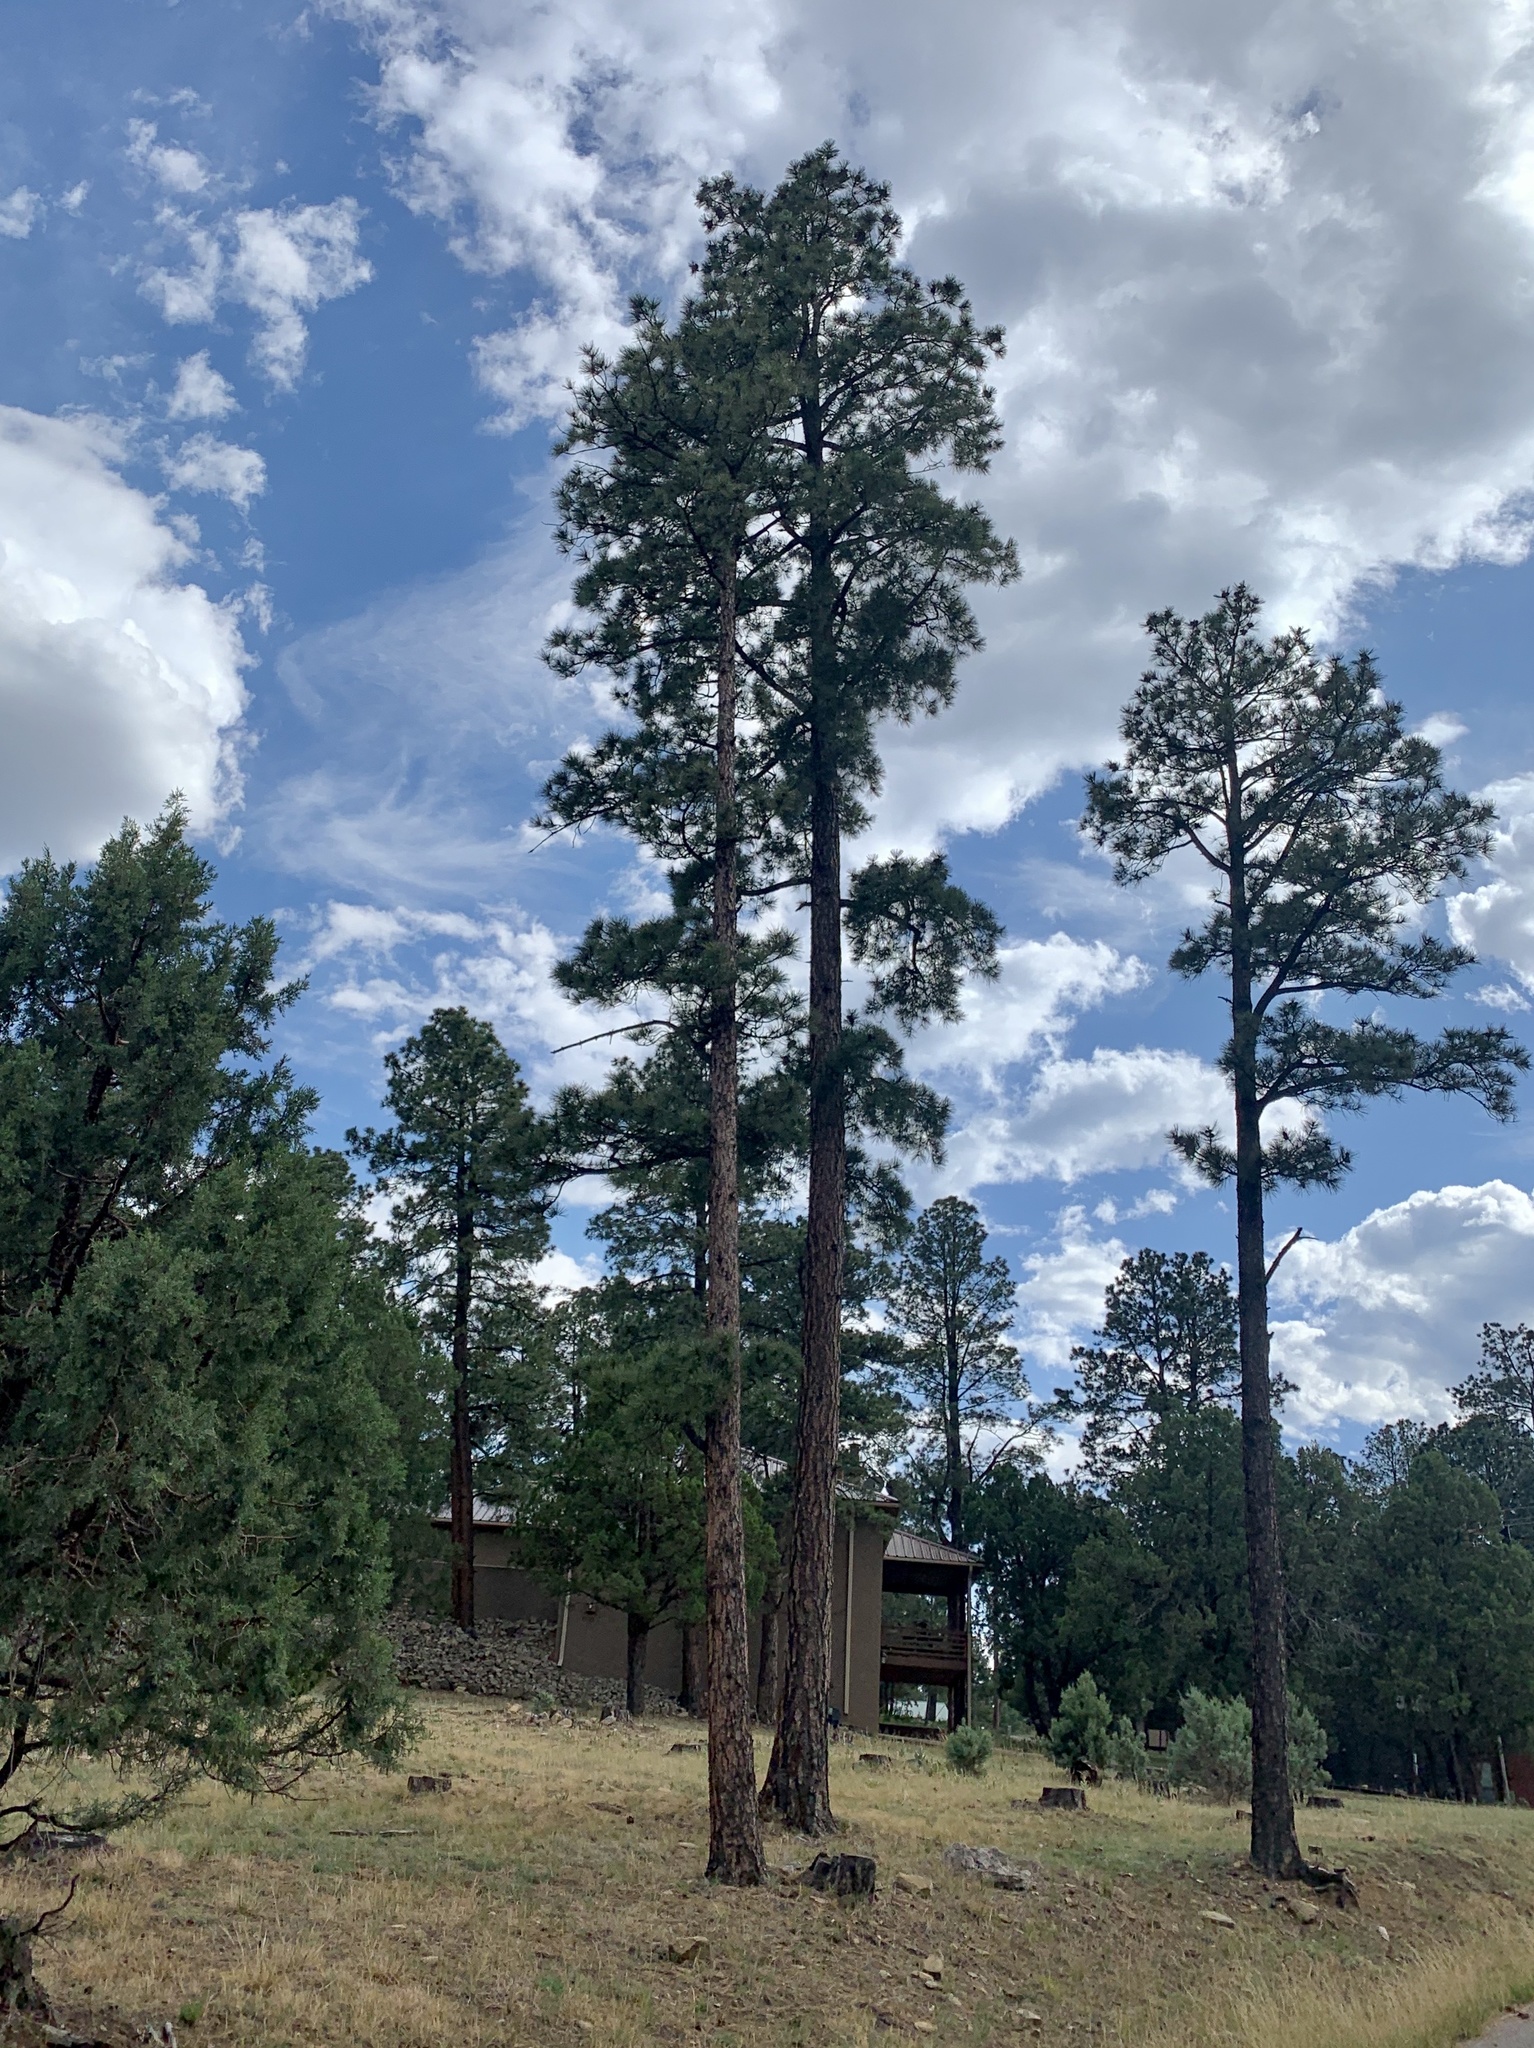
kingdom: Plantae
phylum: Tracheophyta
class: Pinopsida
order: Pinales
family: Pinaceae
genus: Pinus
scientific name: Pinus ponderosa
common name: Western yellow-pine
